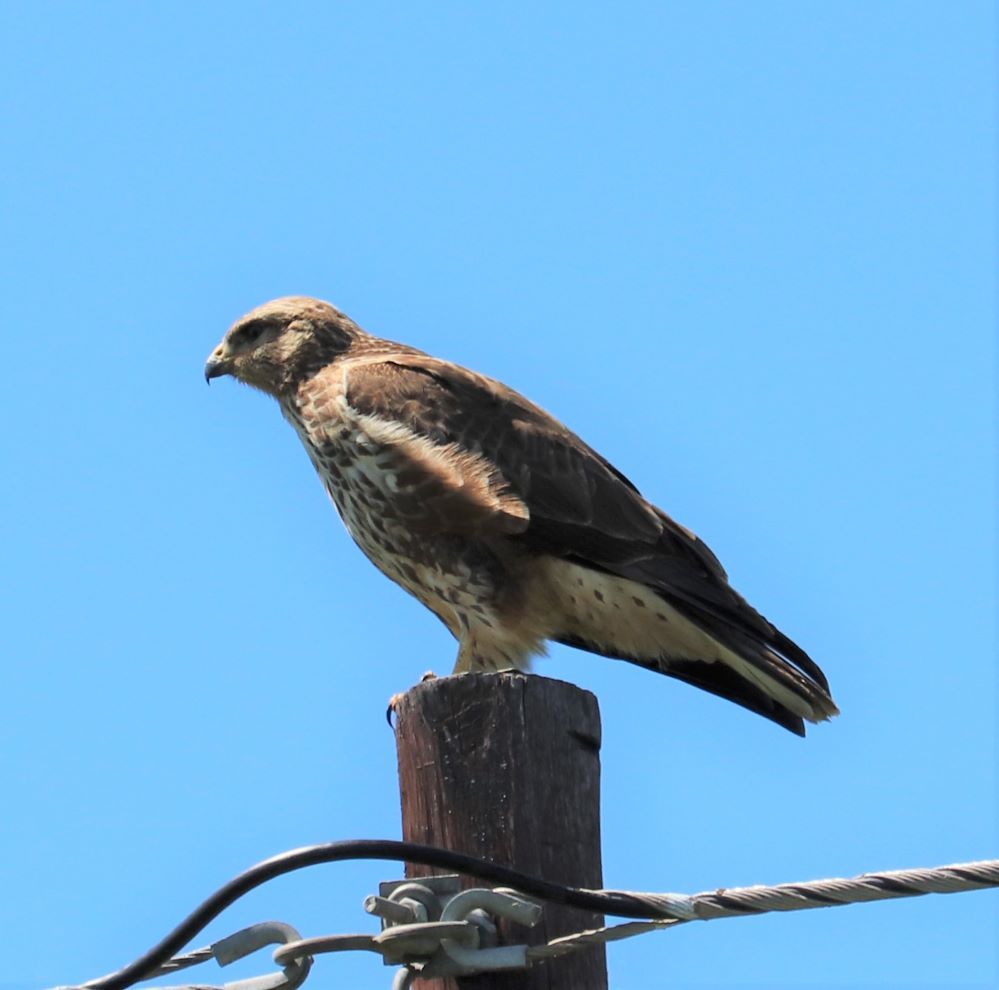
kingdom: Animalia
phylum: Chordata
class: Aves
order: Accipitriformes
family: Accipitridae
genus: Buteo
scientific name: Buteo buteo
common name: Common buzzard
